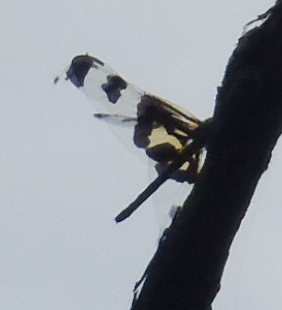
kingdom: Animalia
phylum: Arthropoda
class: Insecta
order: Odonata
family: Libellulidae
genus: Celithemis
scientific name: Celithemis fasciata
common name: Banded pennant
